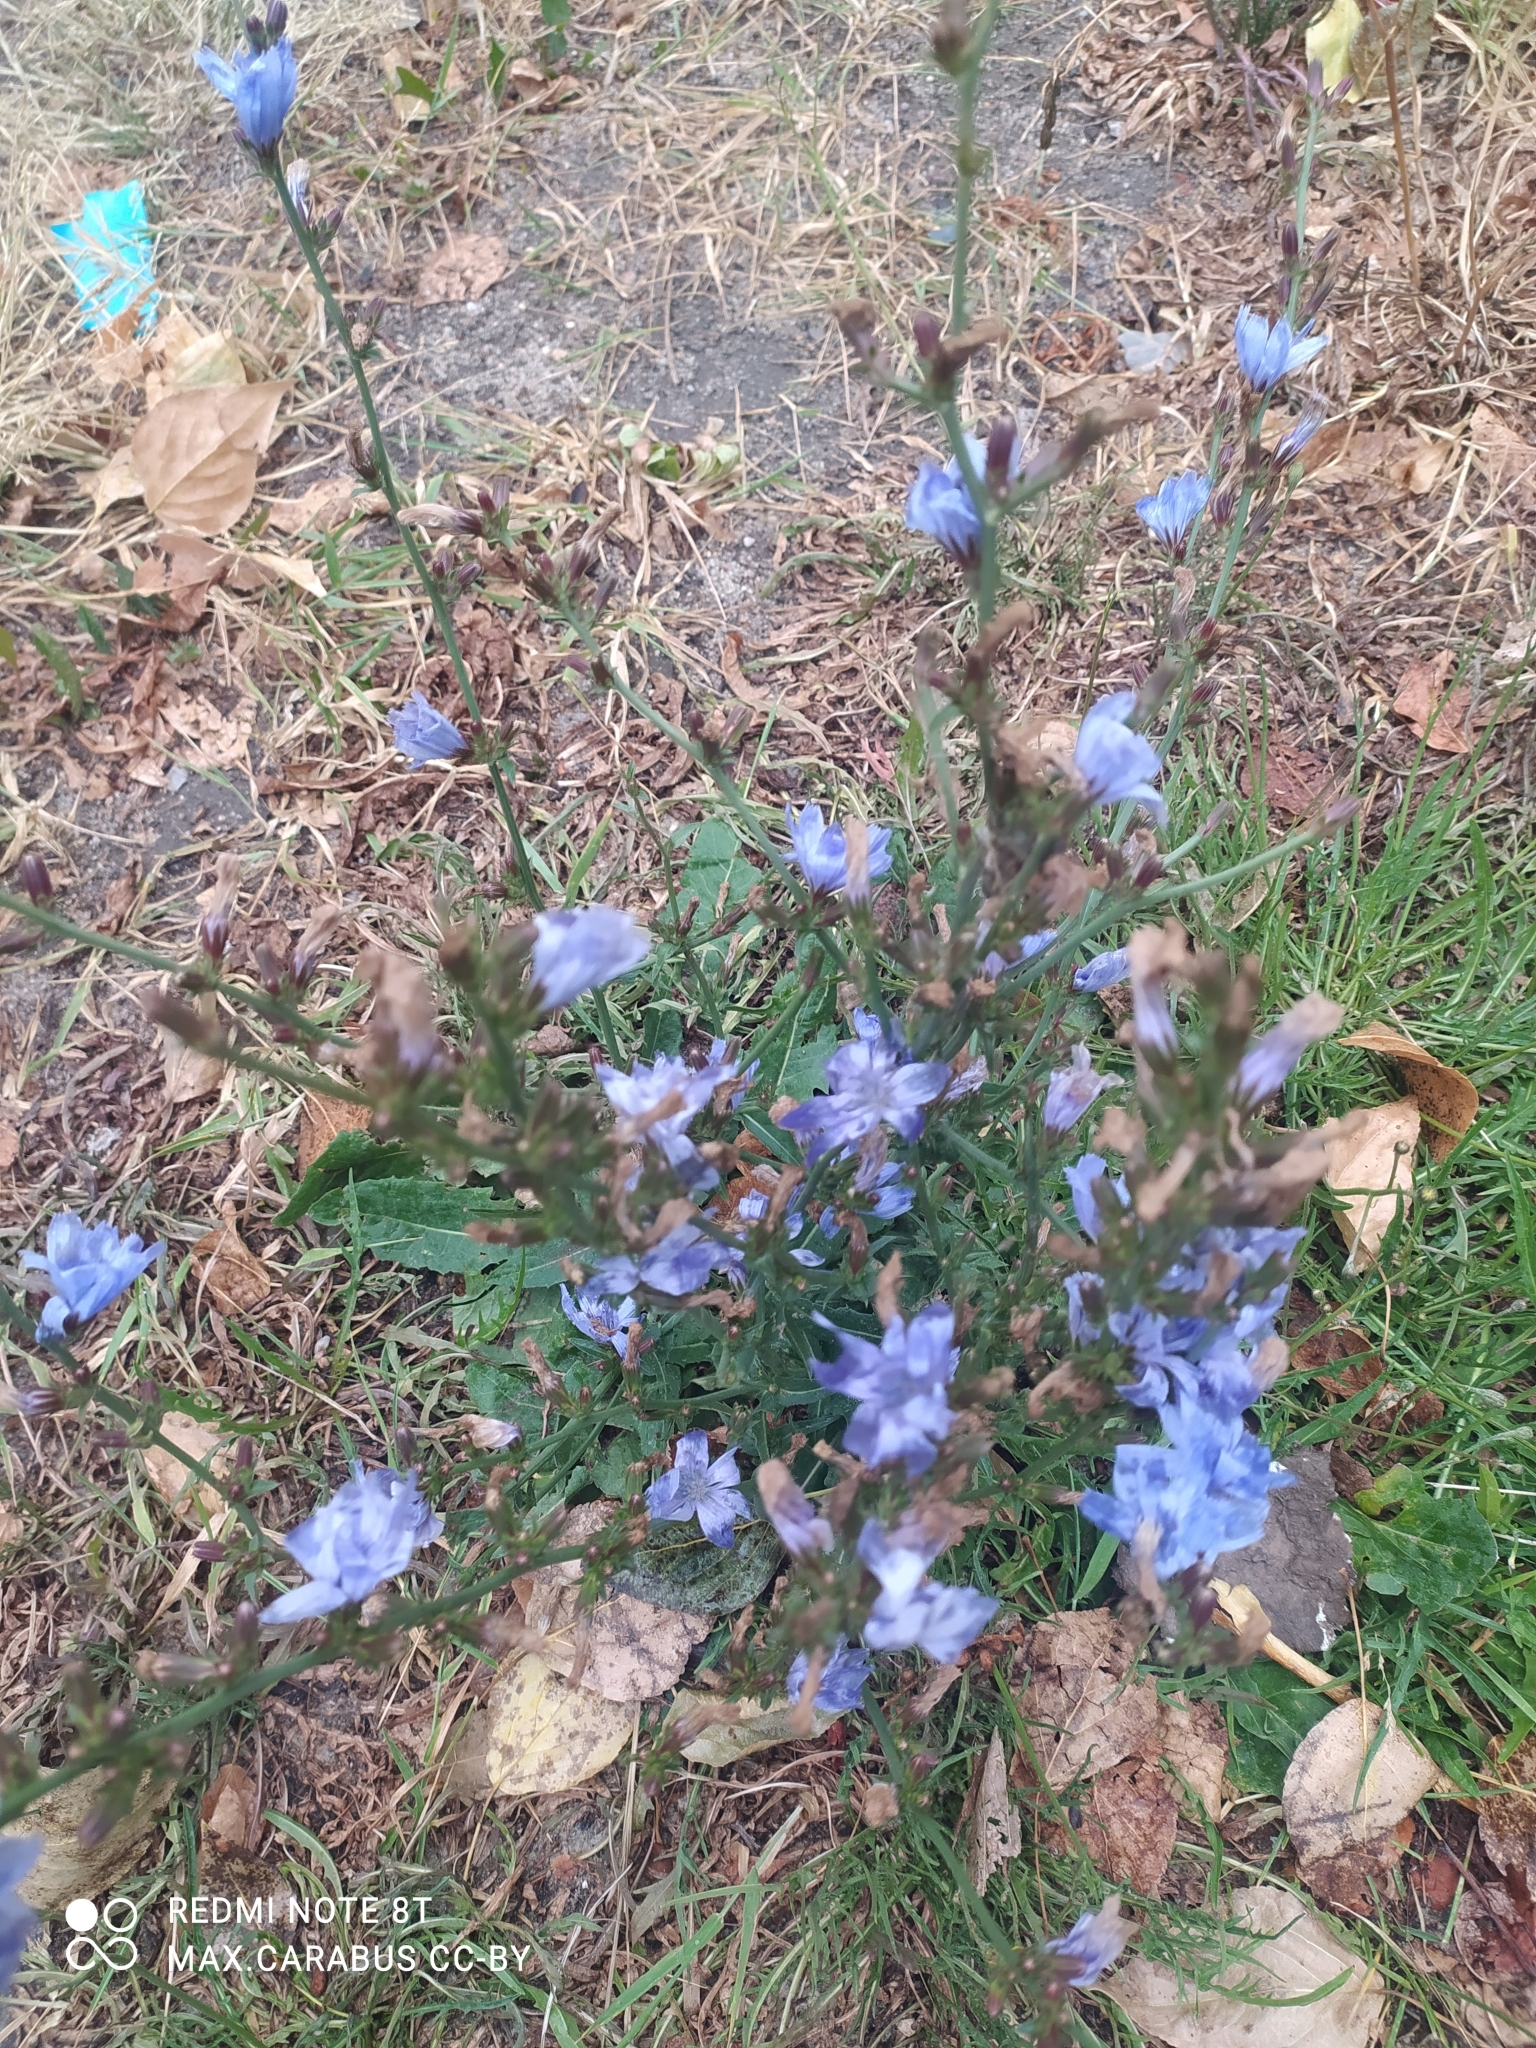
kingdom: Plantae
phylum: Tracheophyta
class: Magnoliopsida
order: Asterales
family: Asteraceae
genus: Cichorium
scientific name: Cichorium intybus
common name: Chicory
